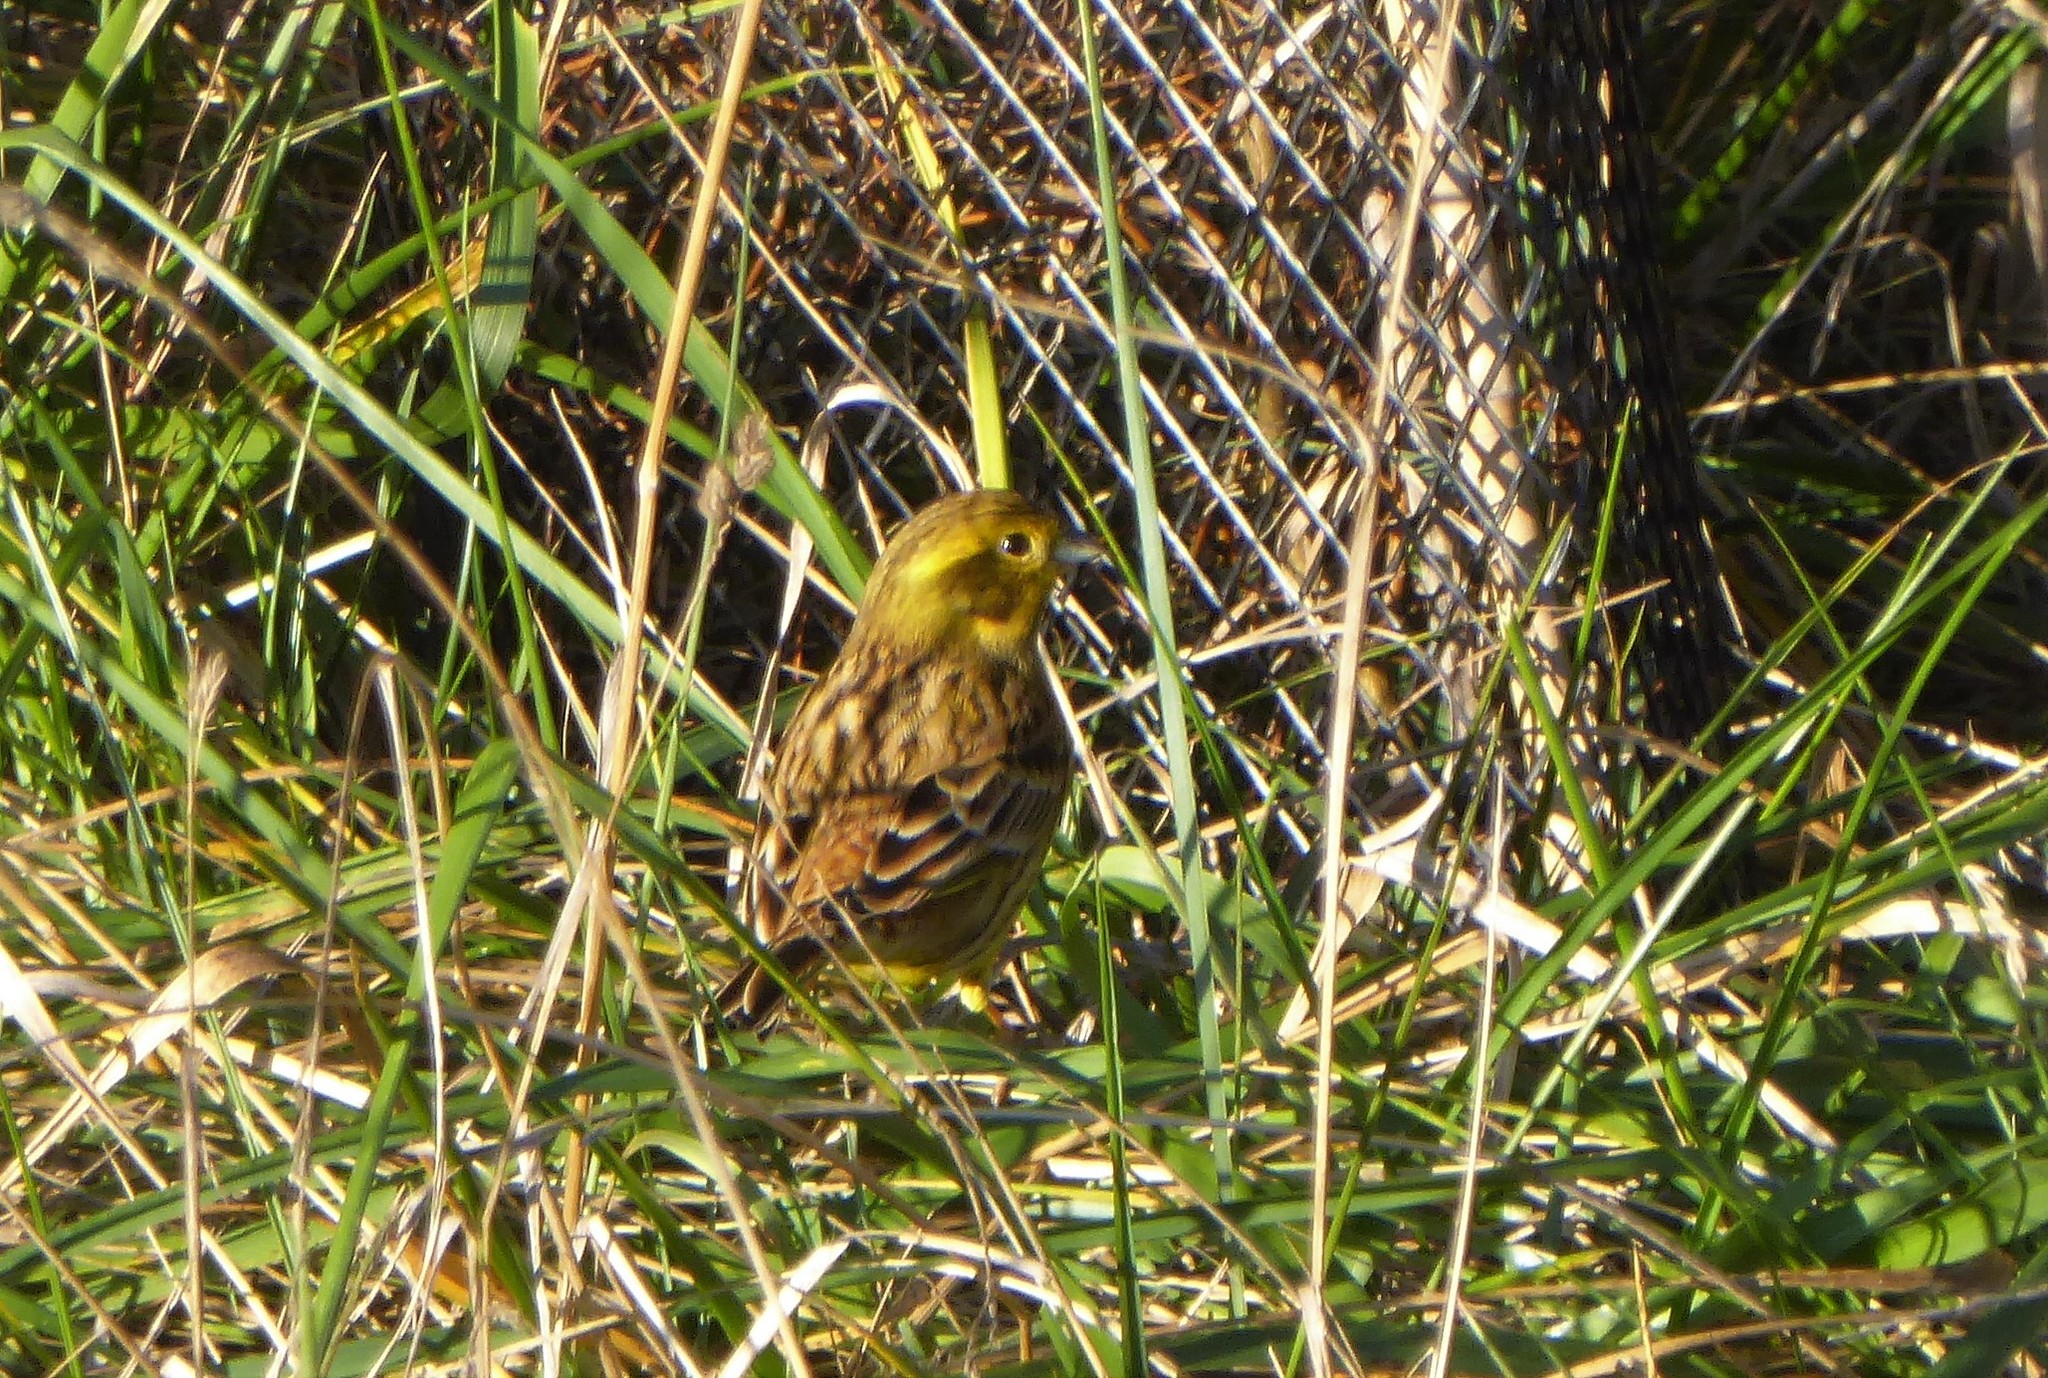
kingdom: Animalia
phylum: Chordata
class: Aves
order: Passeriformes
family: Emberizidae
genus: Emberiza
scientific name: Emberiza citrinella
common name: Yellowhammer
